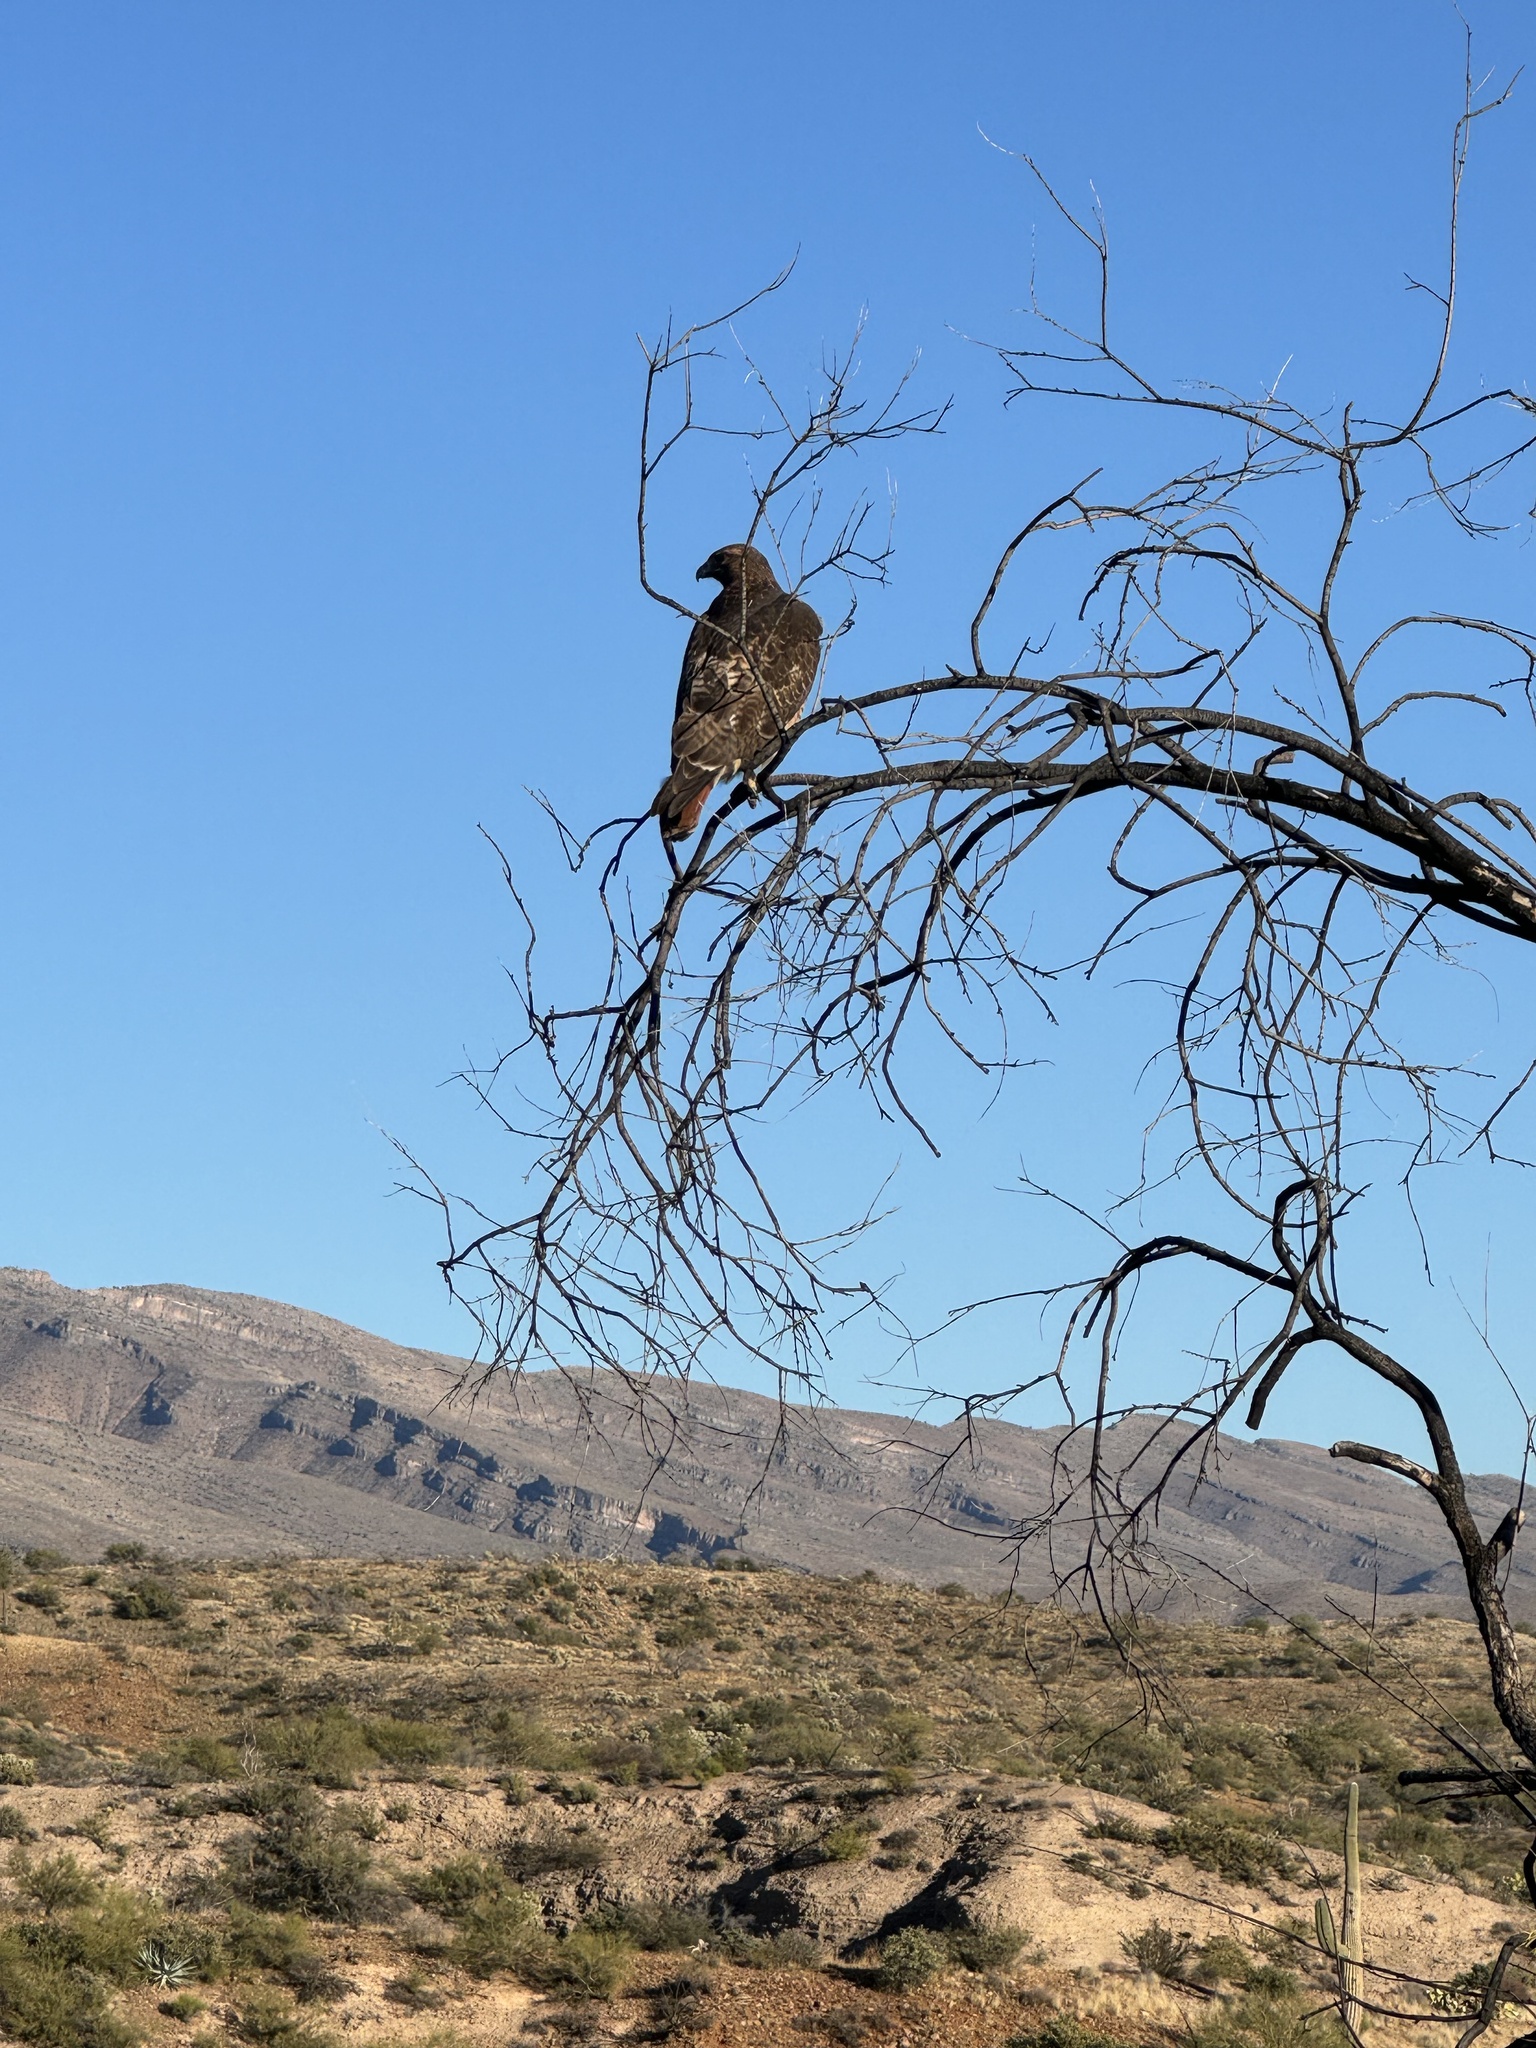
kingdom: Animalia
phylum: Chordata
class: Aves
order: Accipitriformes
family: Accipitridae
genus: Buteo
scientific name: Buteo jamaicensis
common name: Red-tailed hawk
